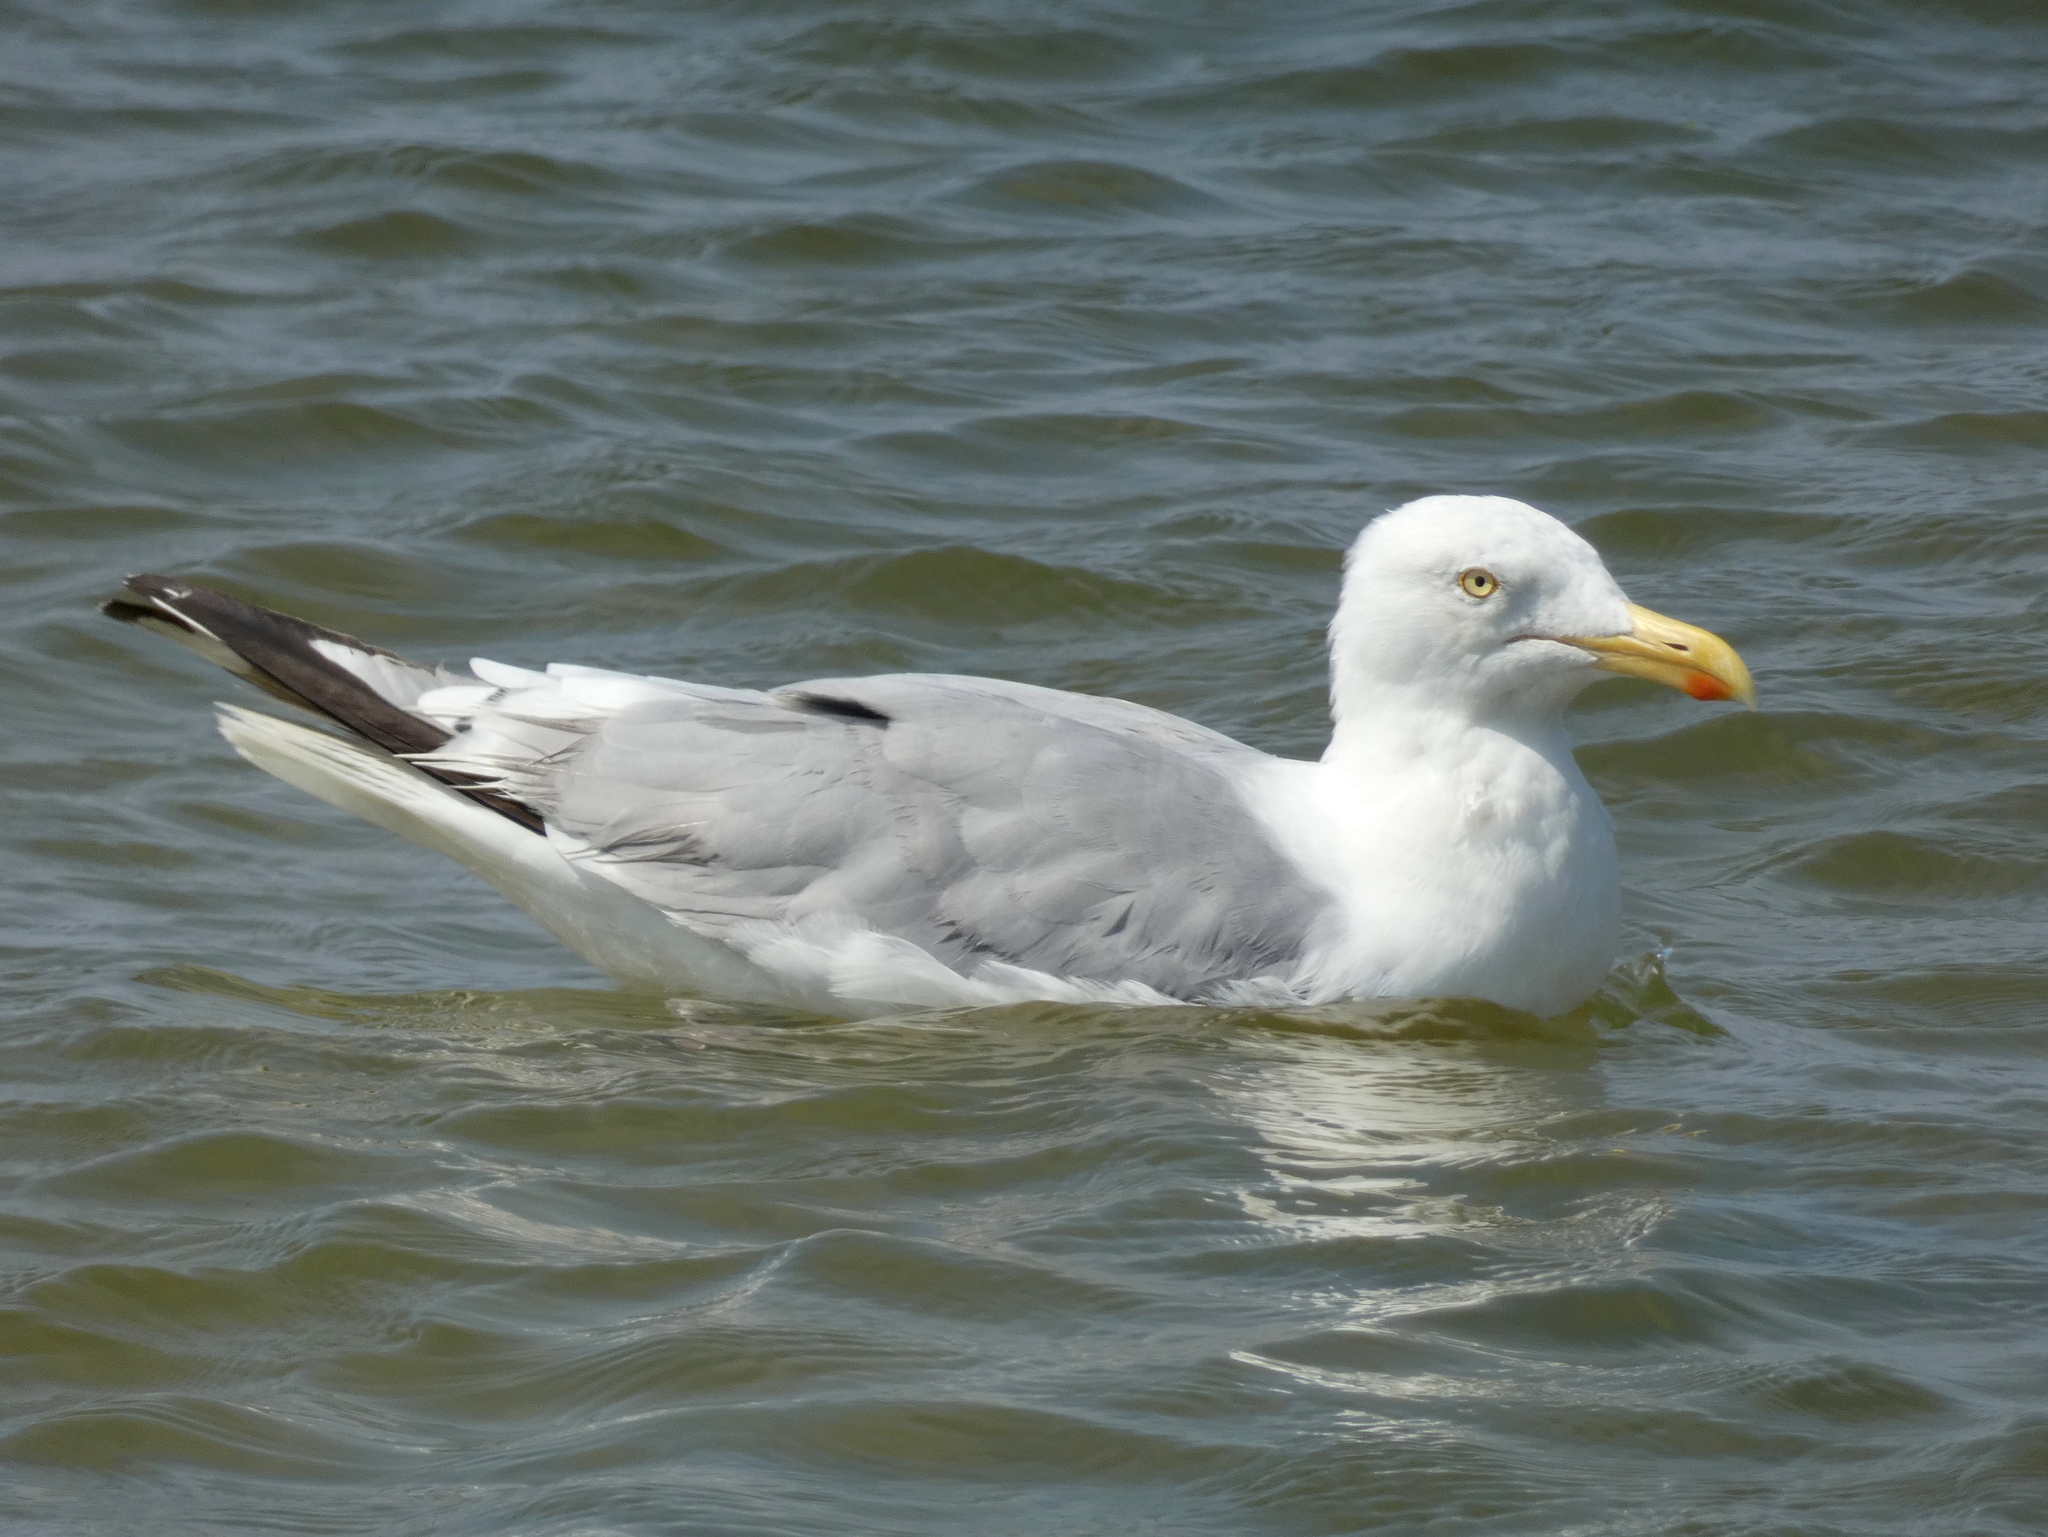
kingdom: Animalia
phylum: Chordata
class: Aves
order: Charadriiformes
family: Laridae
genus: Larus
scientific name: Larus argentatus
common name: Herring gull
